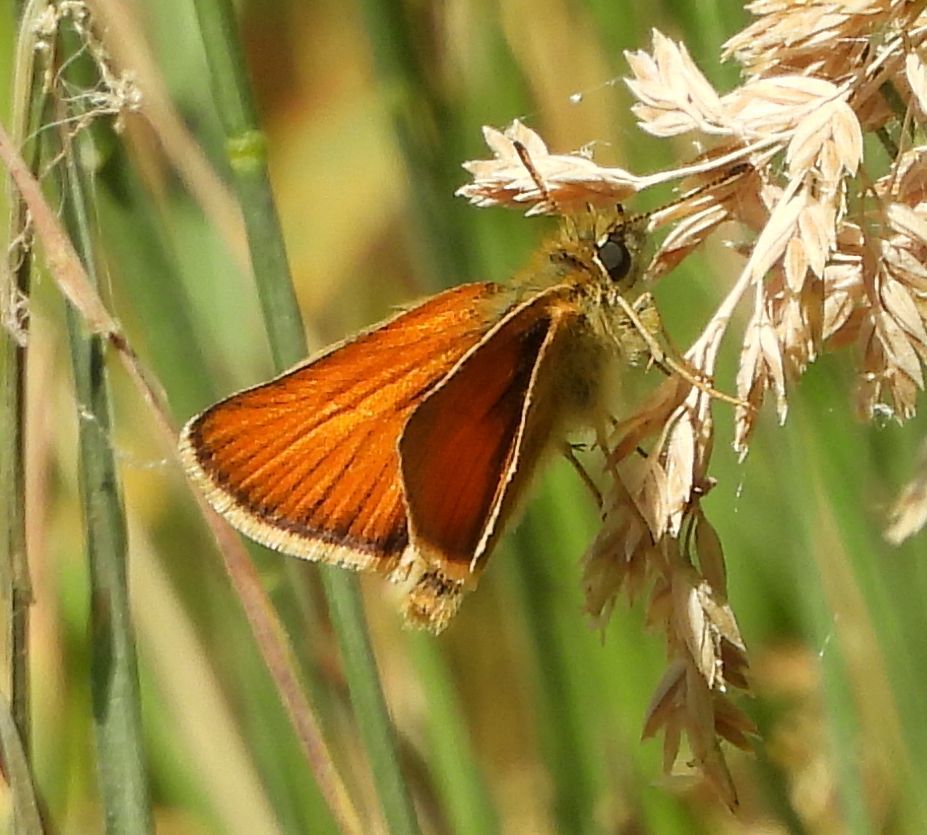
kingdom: Animalia
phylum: Arthropoda
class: Insecta
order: Lepidoptera
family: Hesperiidae
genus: Thymelicus
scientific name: Thymelicus lineola
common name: Essex skipper
